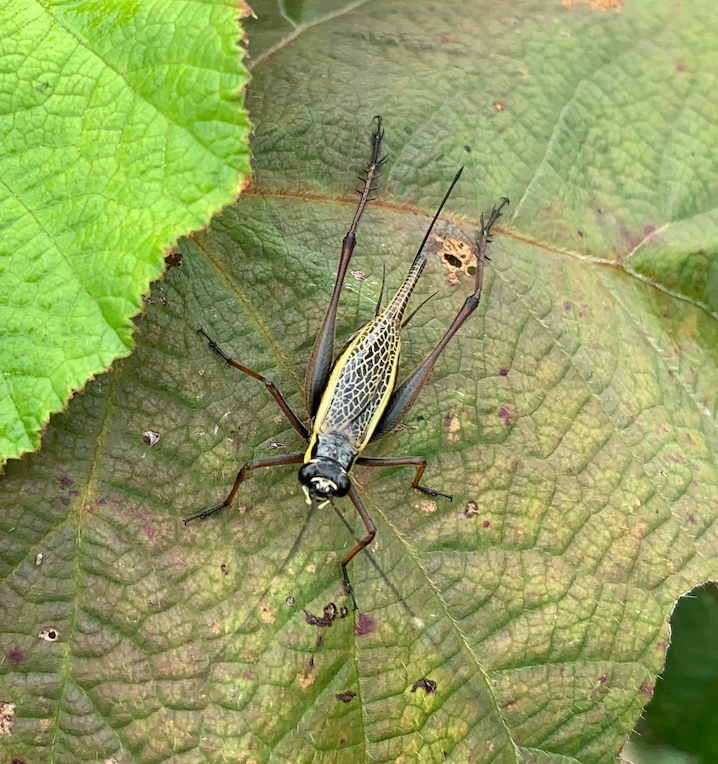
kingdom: Animalia
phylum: Arthropoda
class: Insecta
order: Orthoptera
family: Gryllidae
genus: Nisitrus
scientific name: Nisitrus musicus
